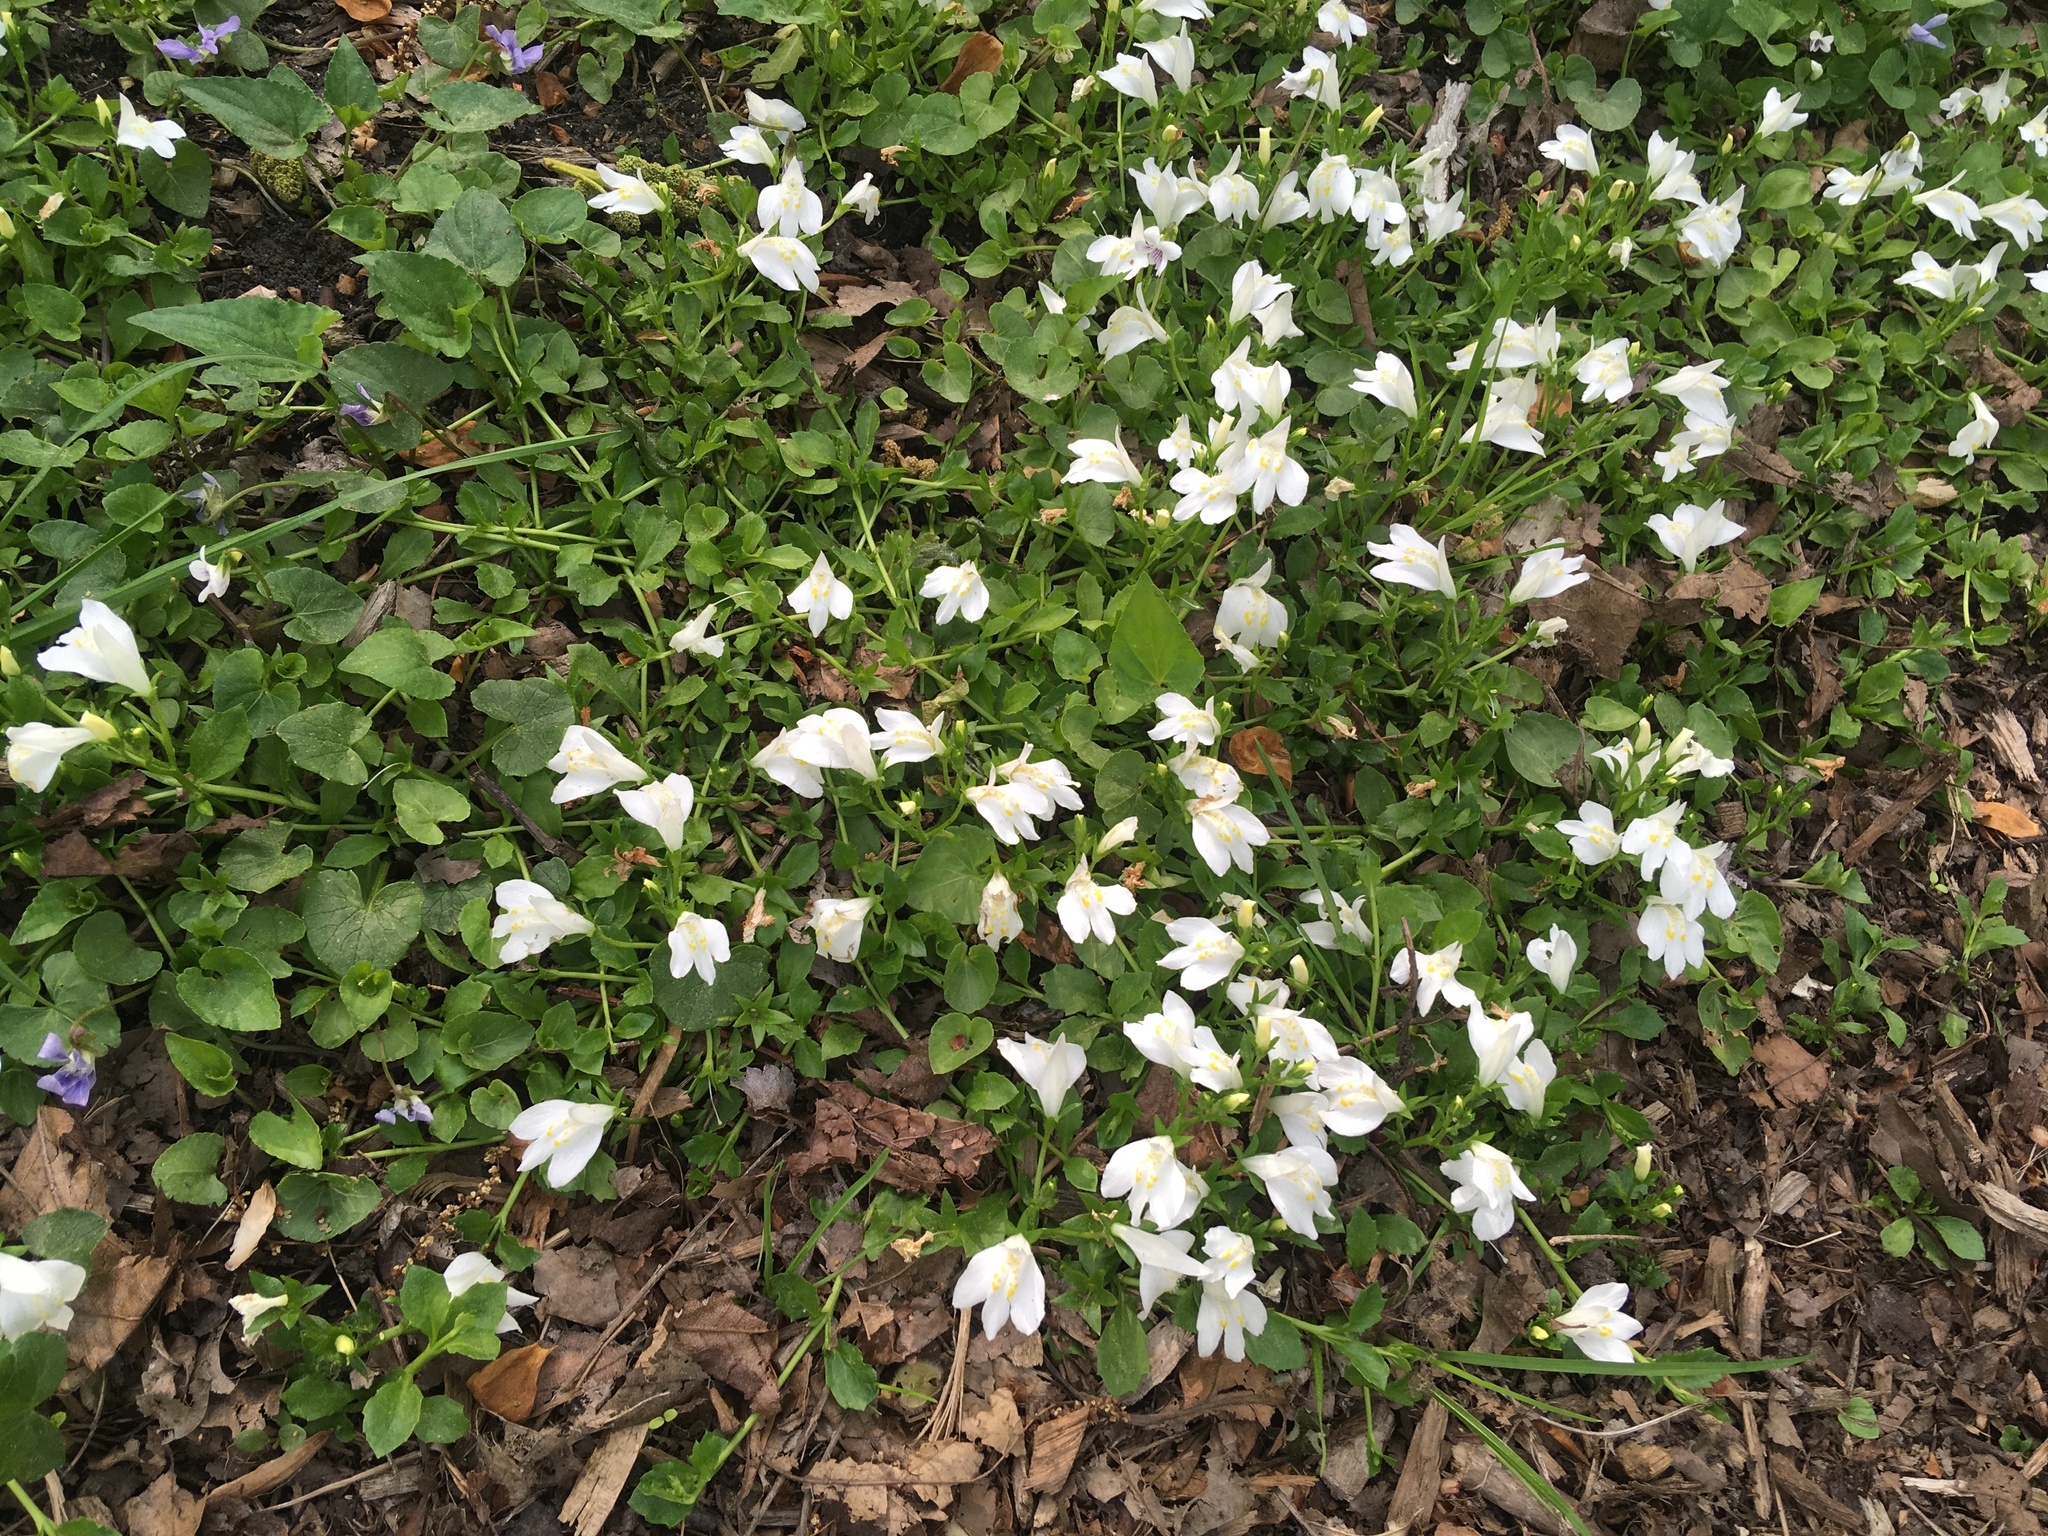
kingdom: Plantae
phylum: Tracheophyta
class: Magnoliopsida
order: Lamiales
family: Mazaceae
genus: Mazus
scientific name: Mazus miquelii
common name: Miquel's mazus
